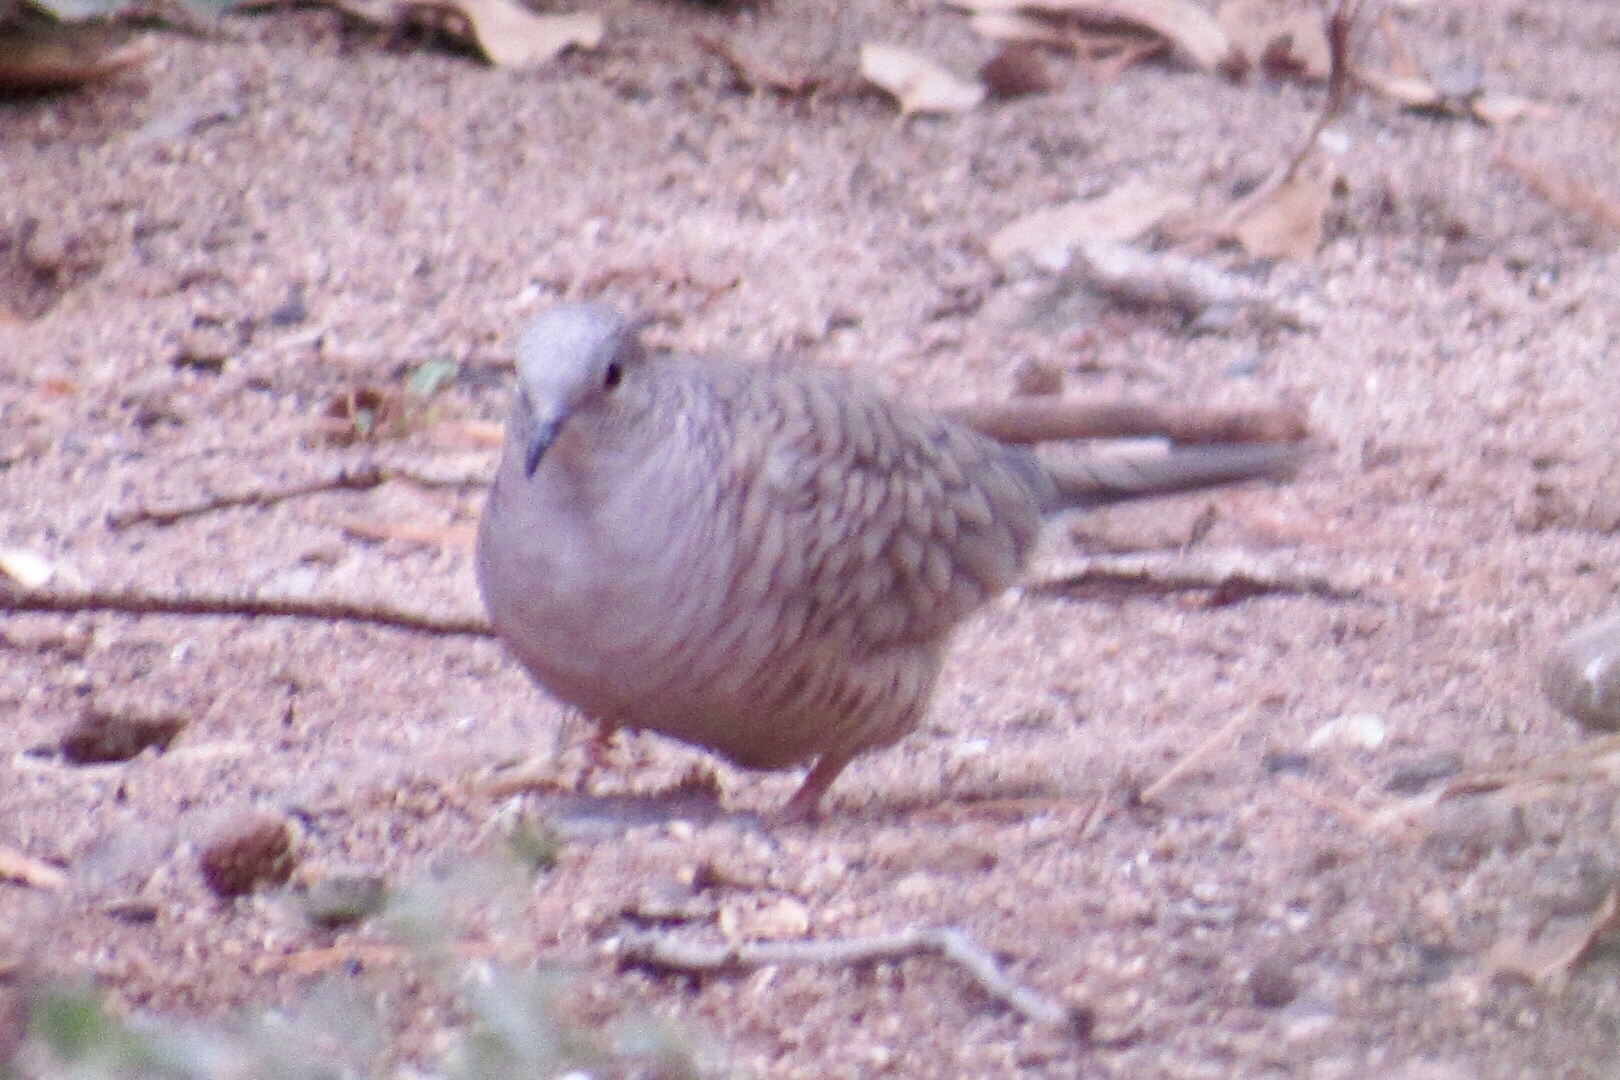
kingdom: Animalia
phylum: Chordata
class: Aves
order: Columbiformes
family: Columbidae
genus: Columbina
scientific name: Columbina inca
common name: Inca dove
